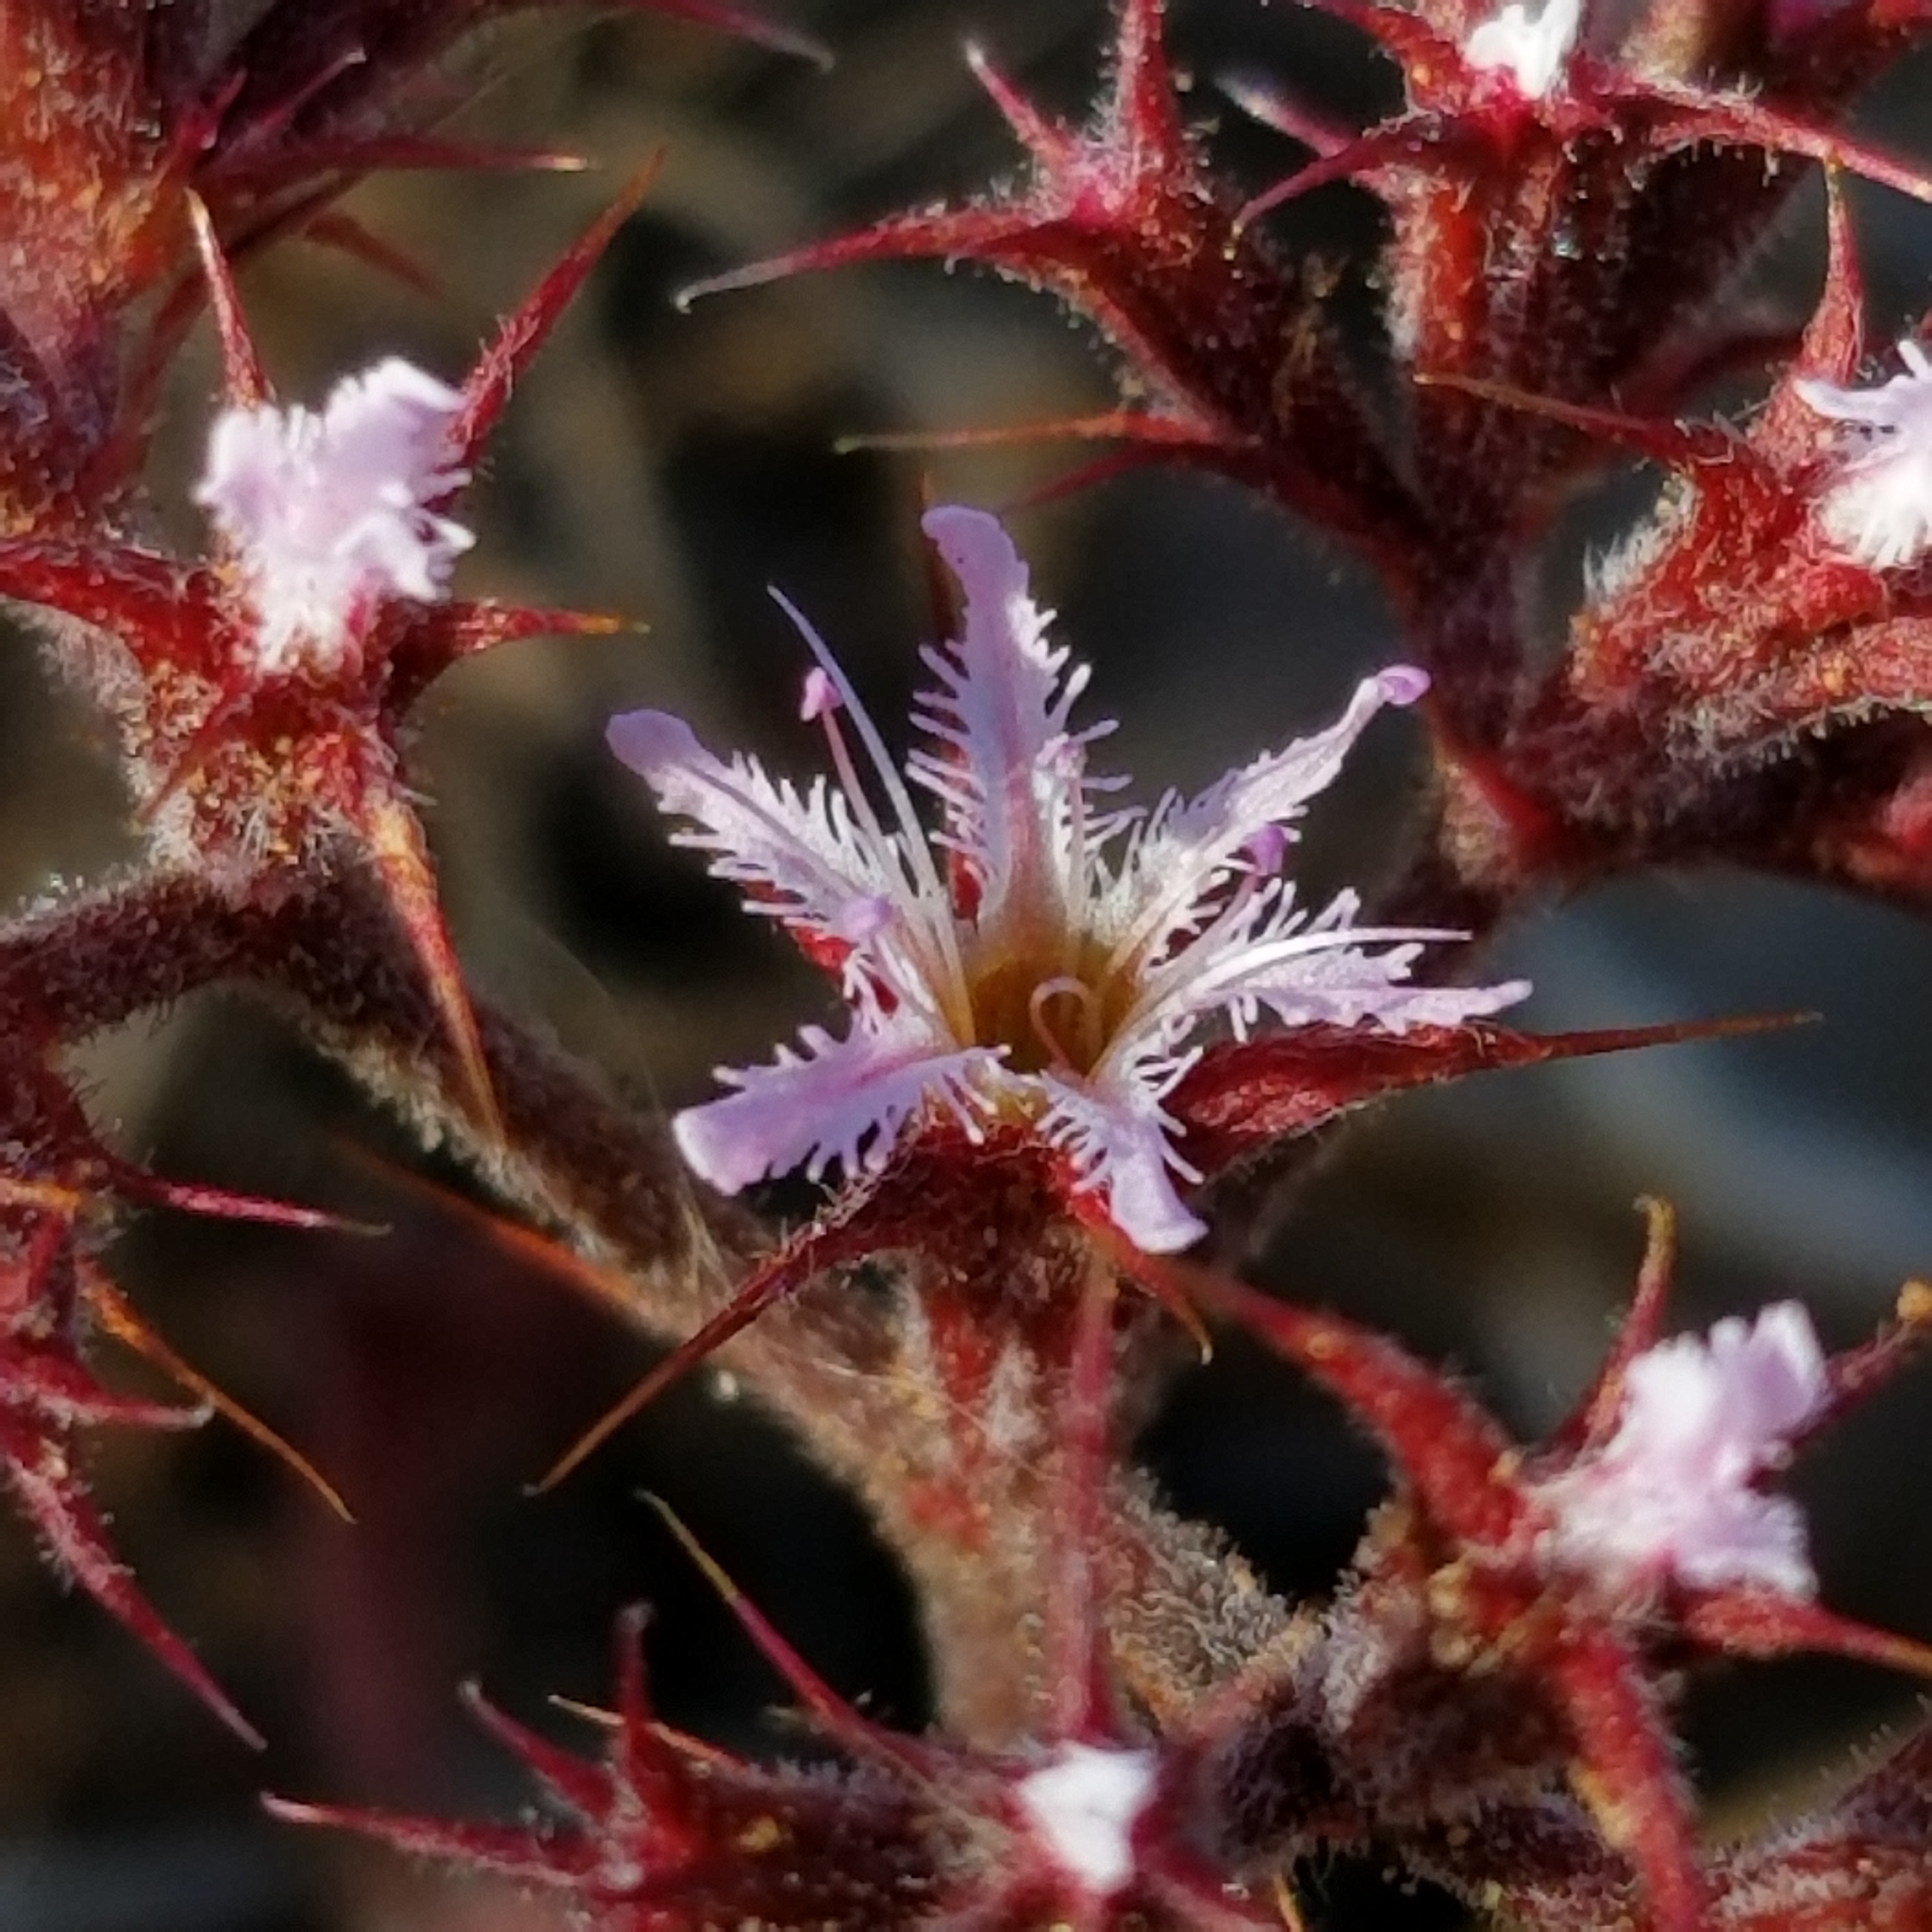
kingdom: Plantae
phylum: Tracheophyta
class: Magnoliopsida
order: Caryophyllales
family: Polygonaceae
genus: Chorizanthe
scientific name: Chorizanthe fimbriata
